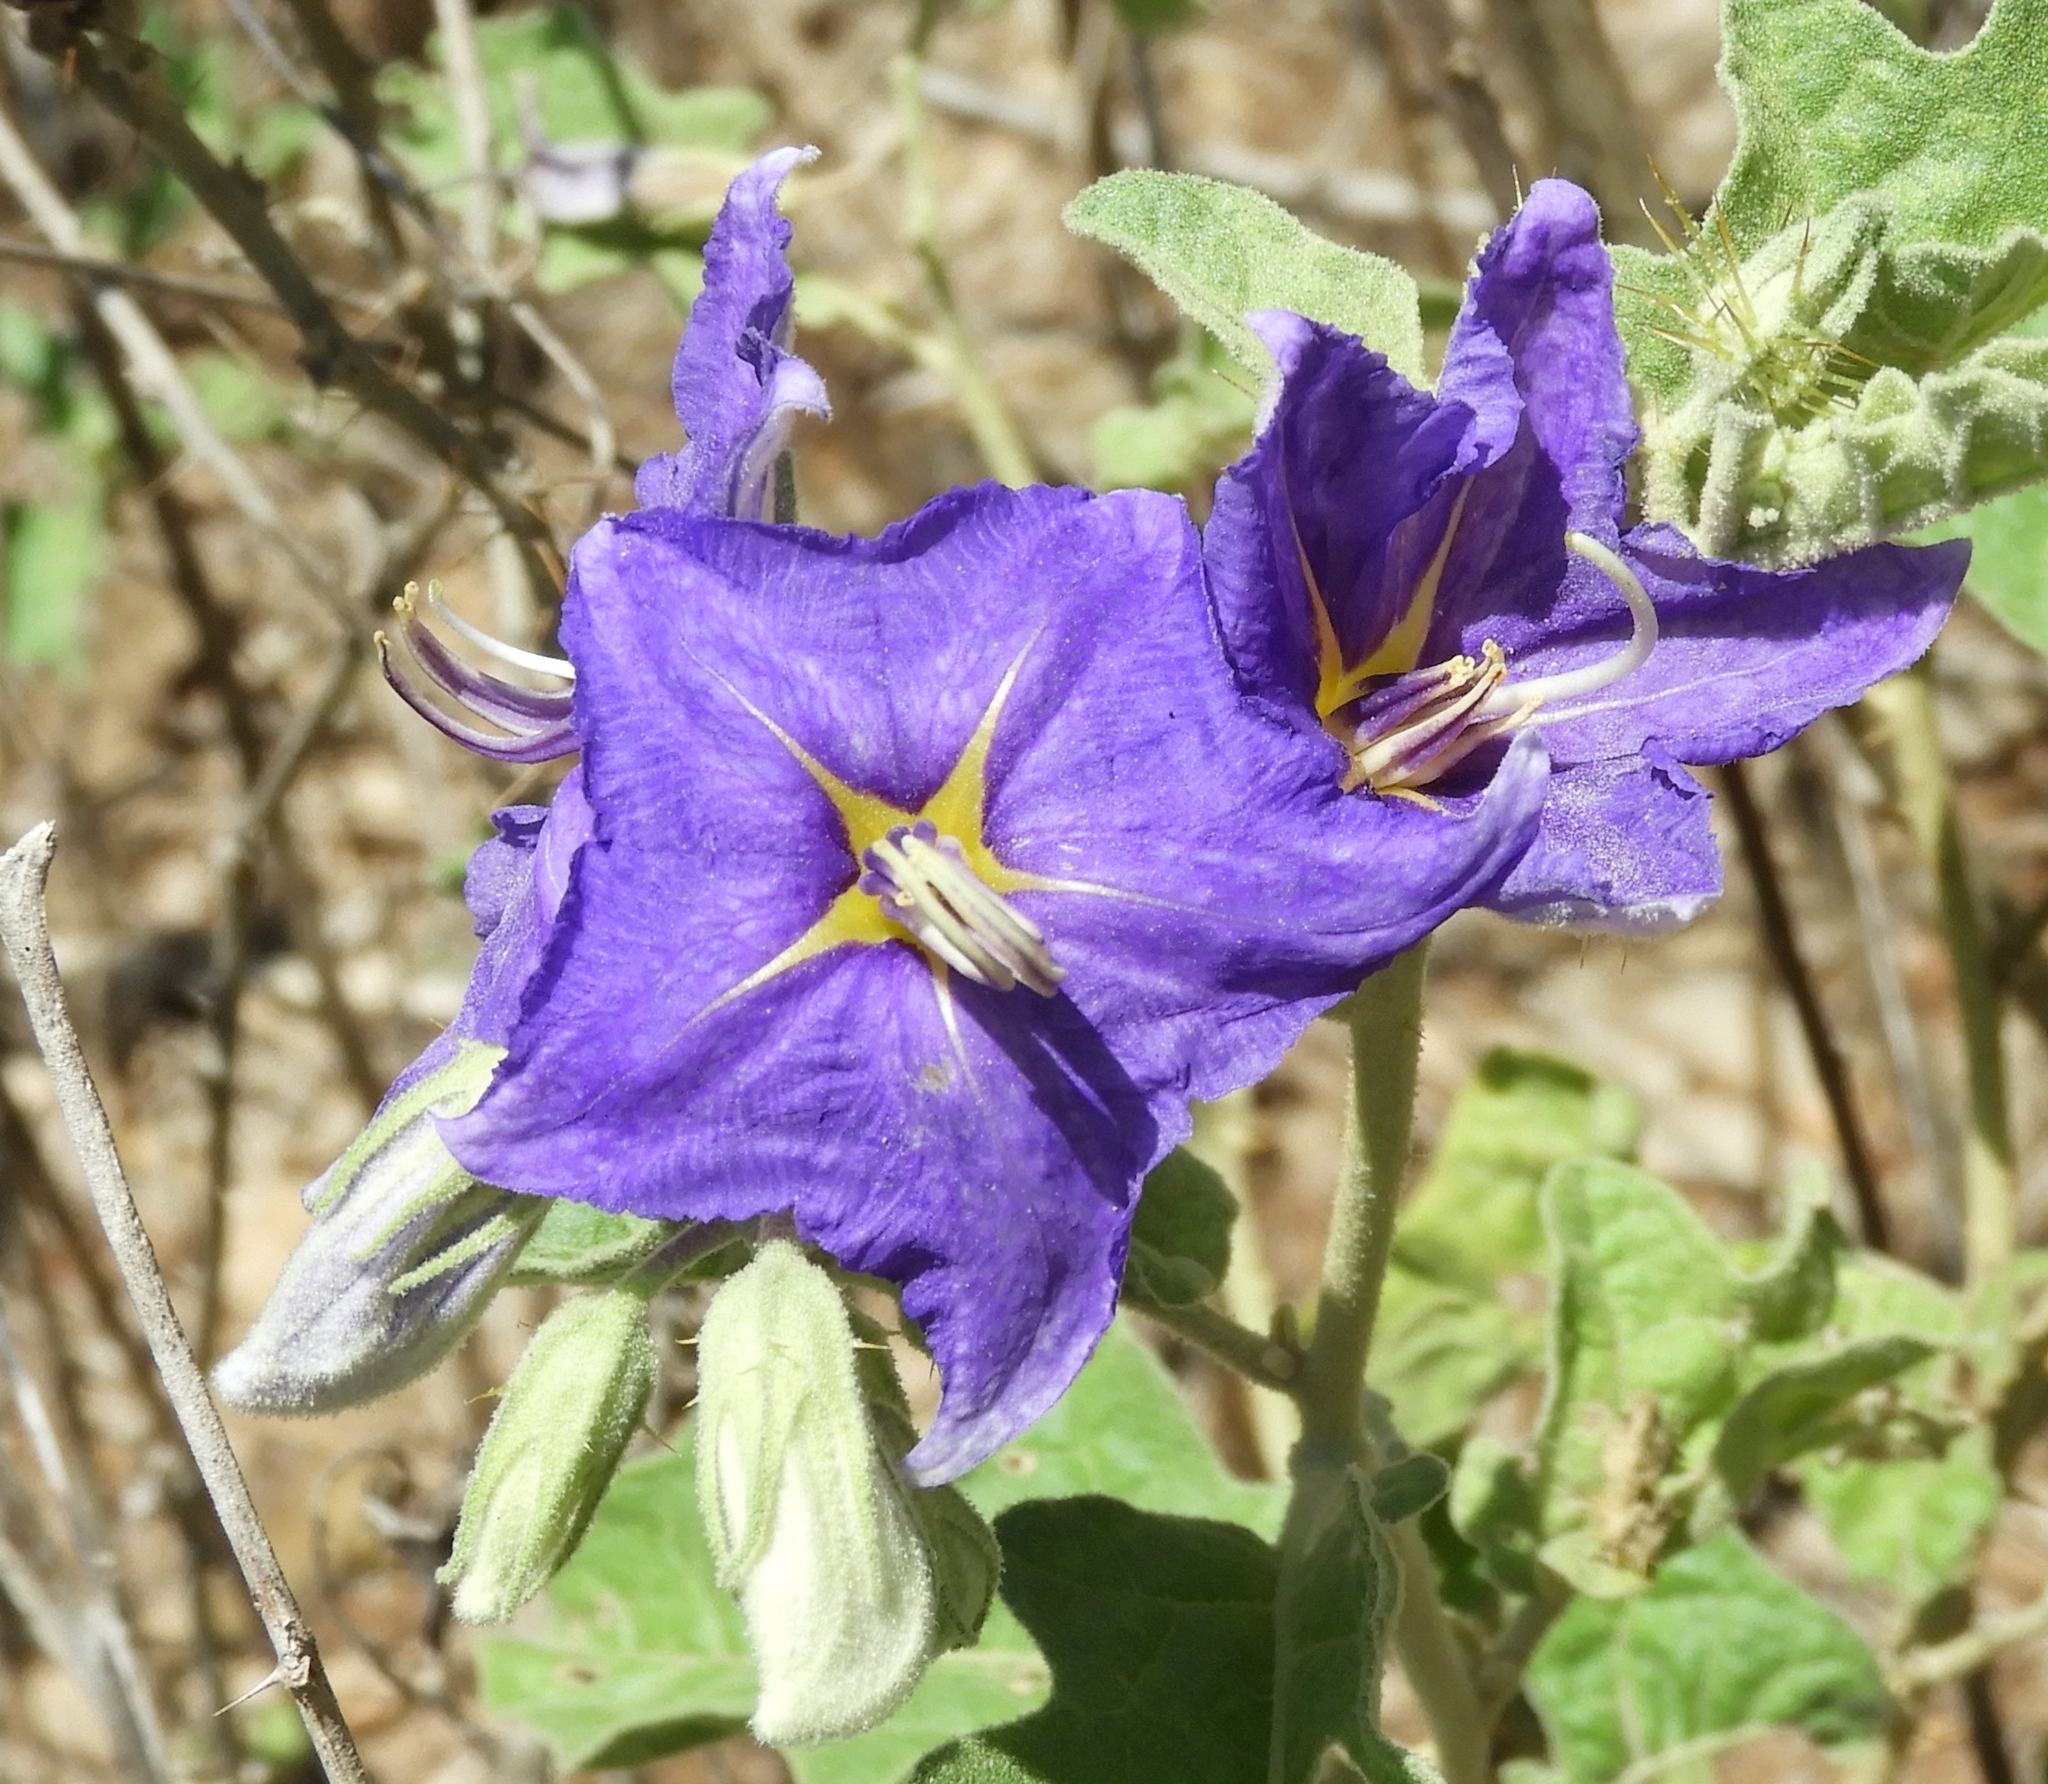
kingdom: Plantae
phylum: Tracheophyta
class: Magnoliopsida
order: Solanales
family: Solanaceae
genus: Solanum
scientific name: Solanum houstonii
